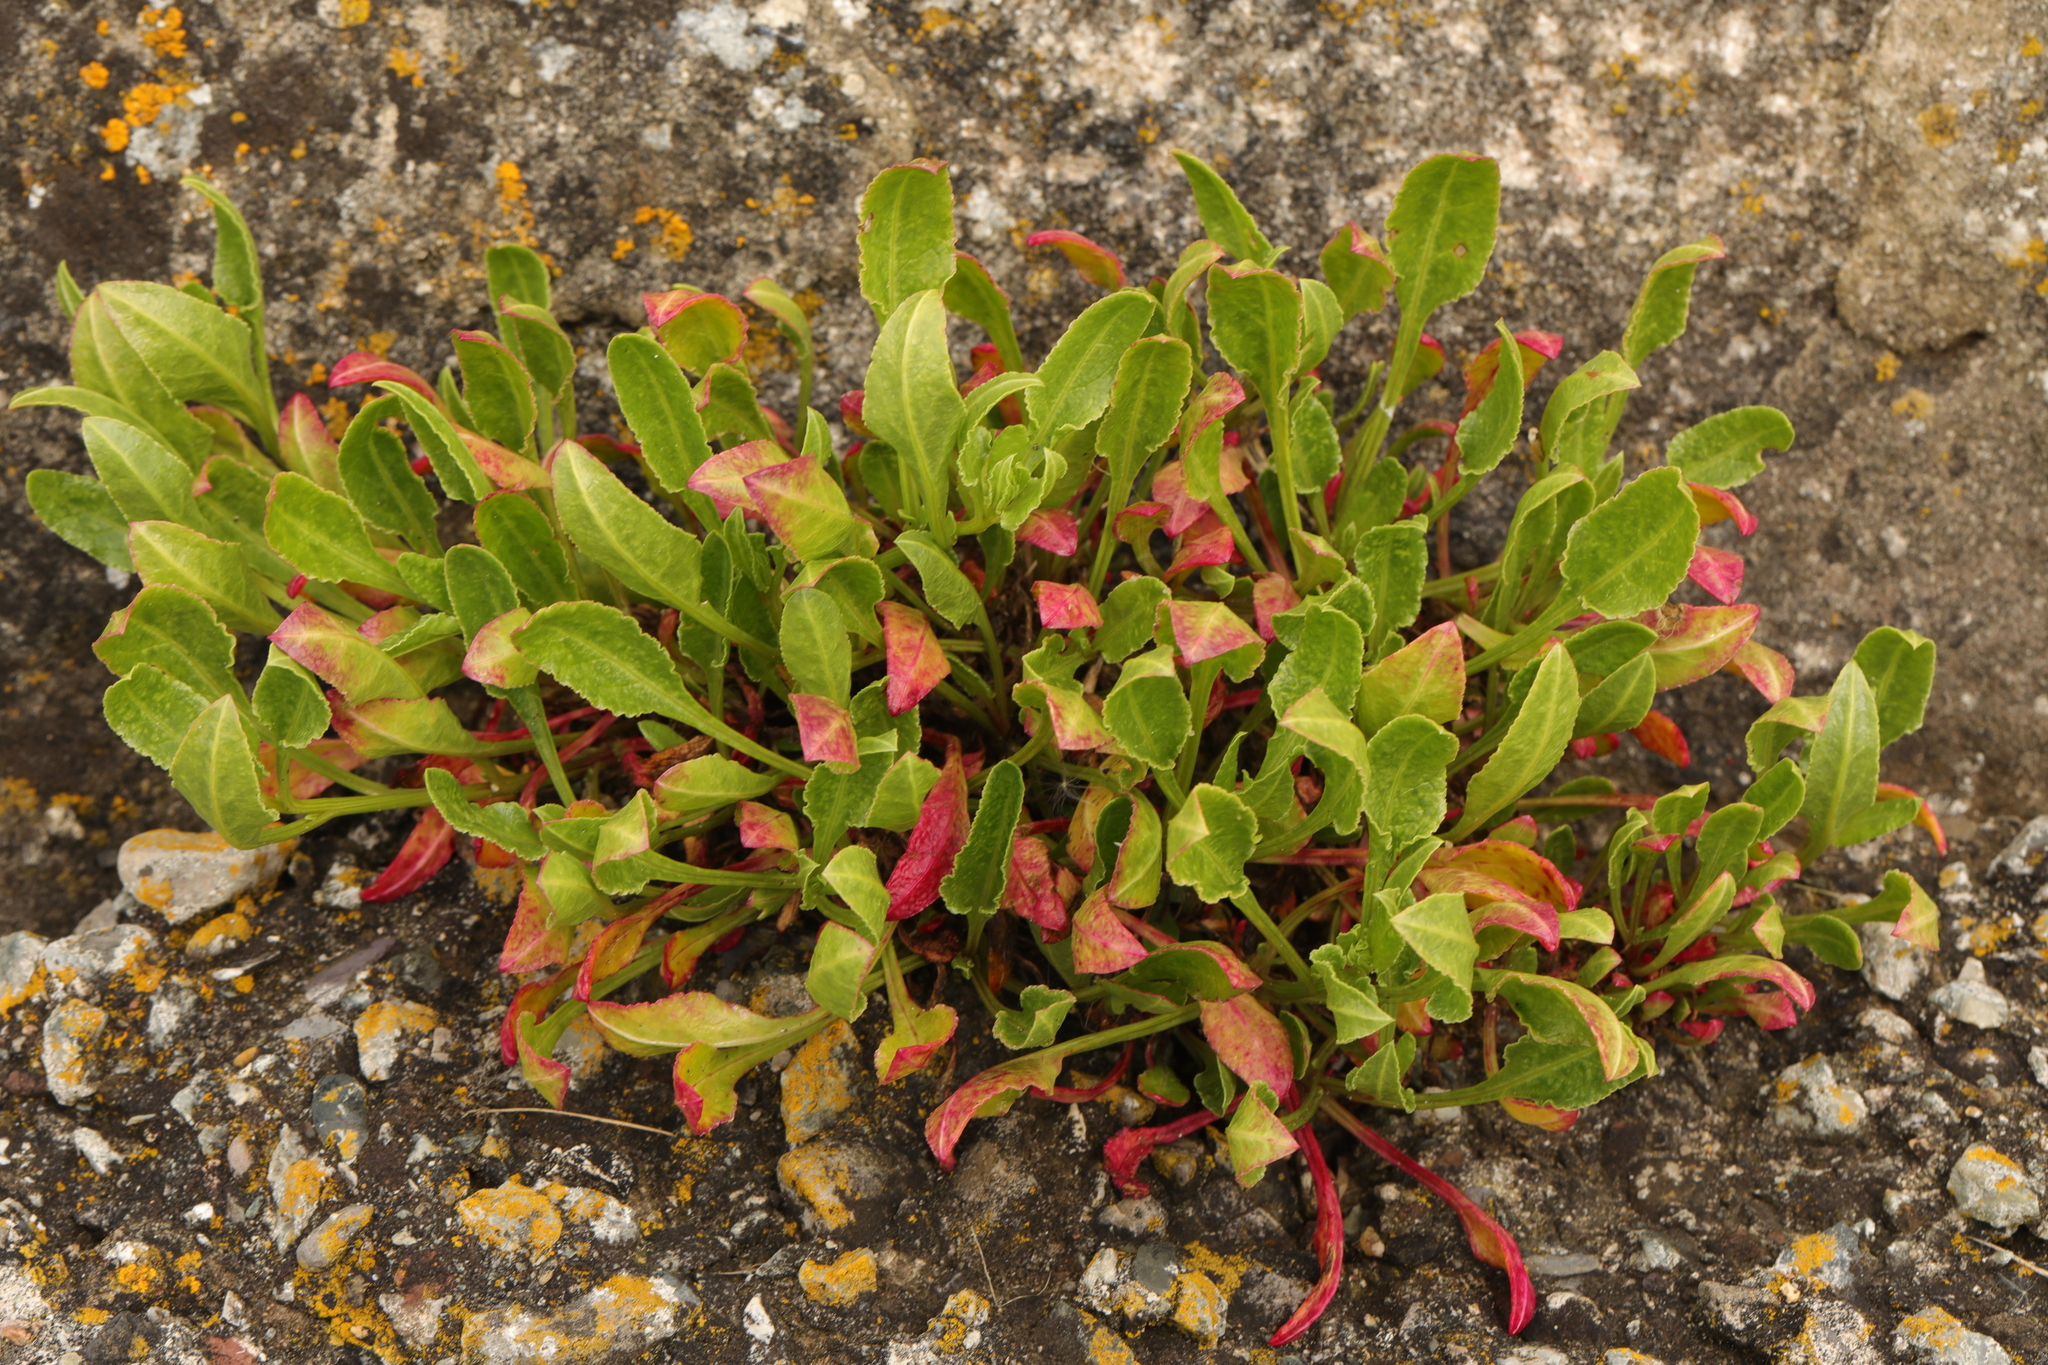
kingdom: Plantae
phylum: Tracheophyta
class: Magnoliopsida
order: Caryophyllales
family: Amaranthaceae
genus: Beta
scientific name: Beta vulgaris
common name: Beet
